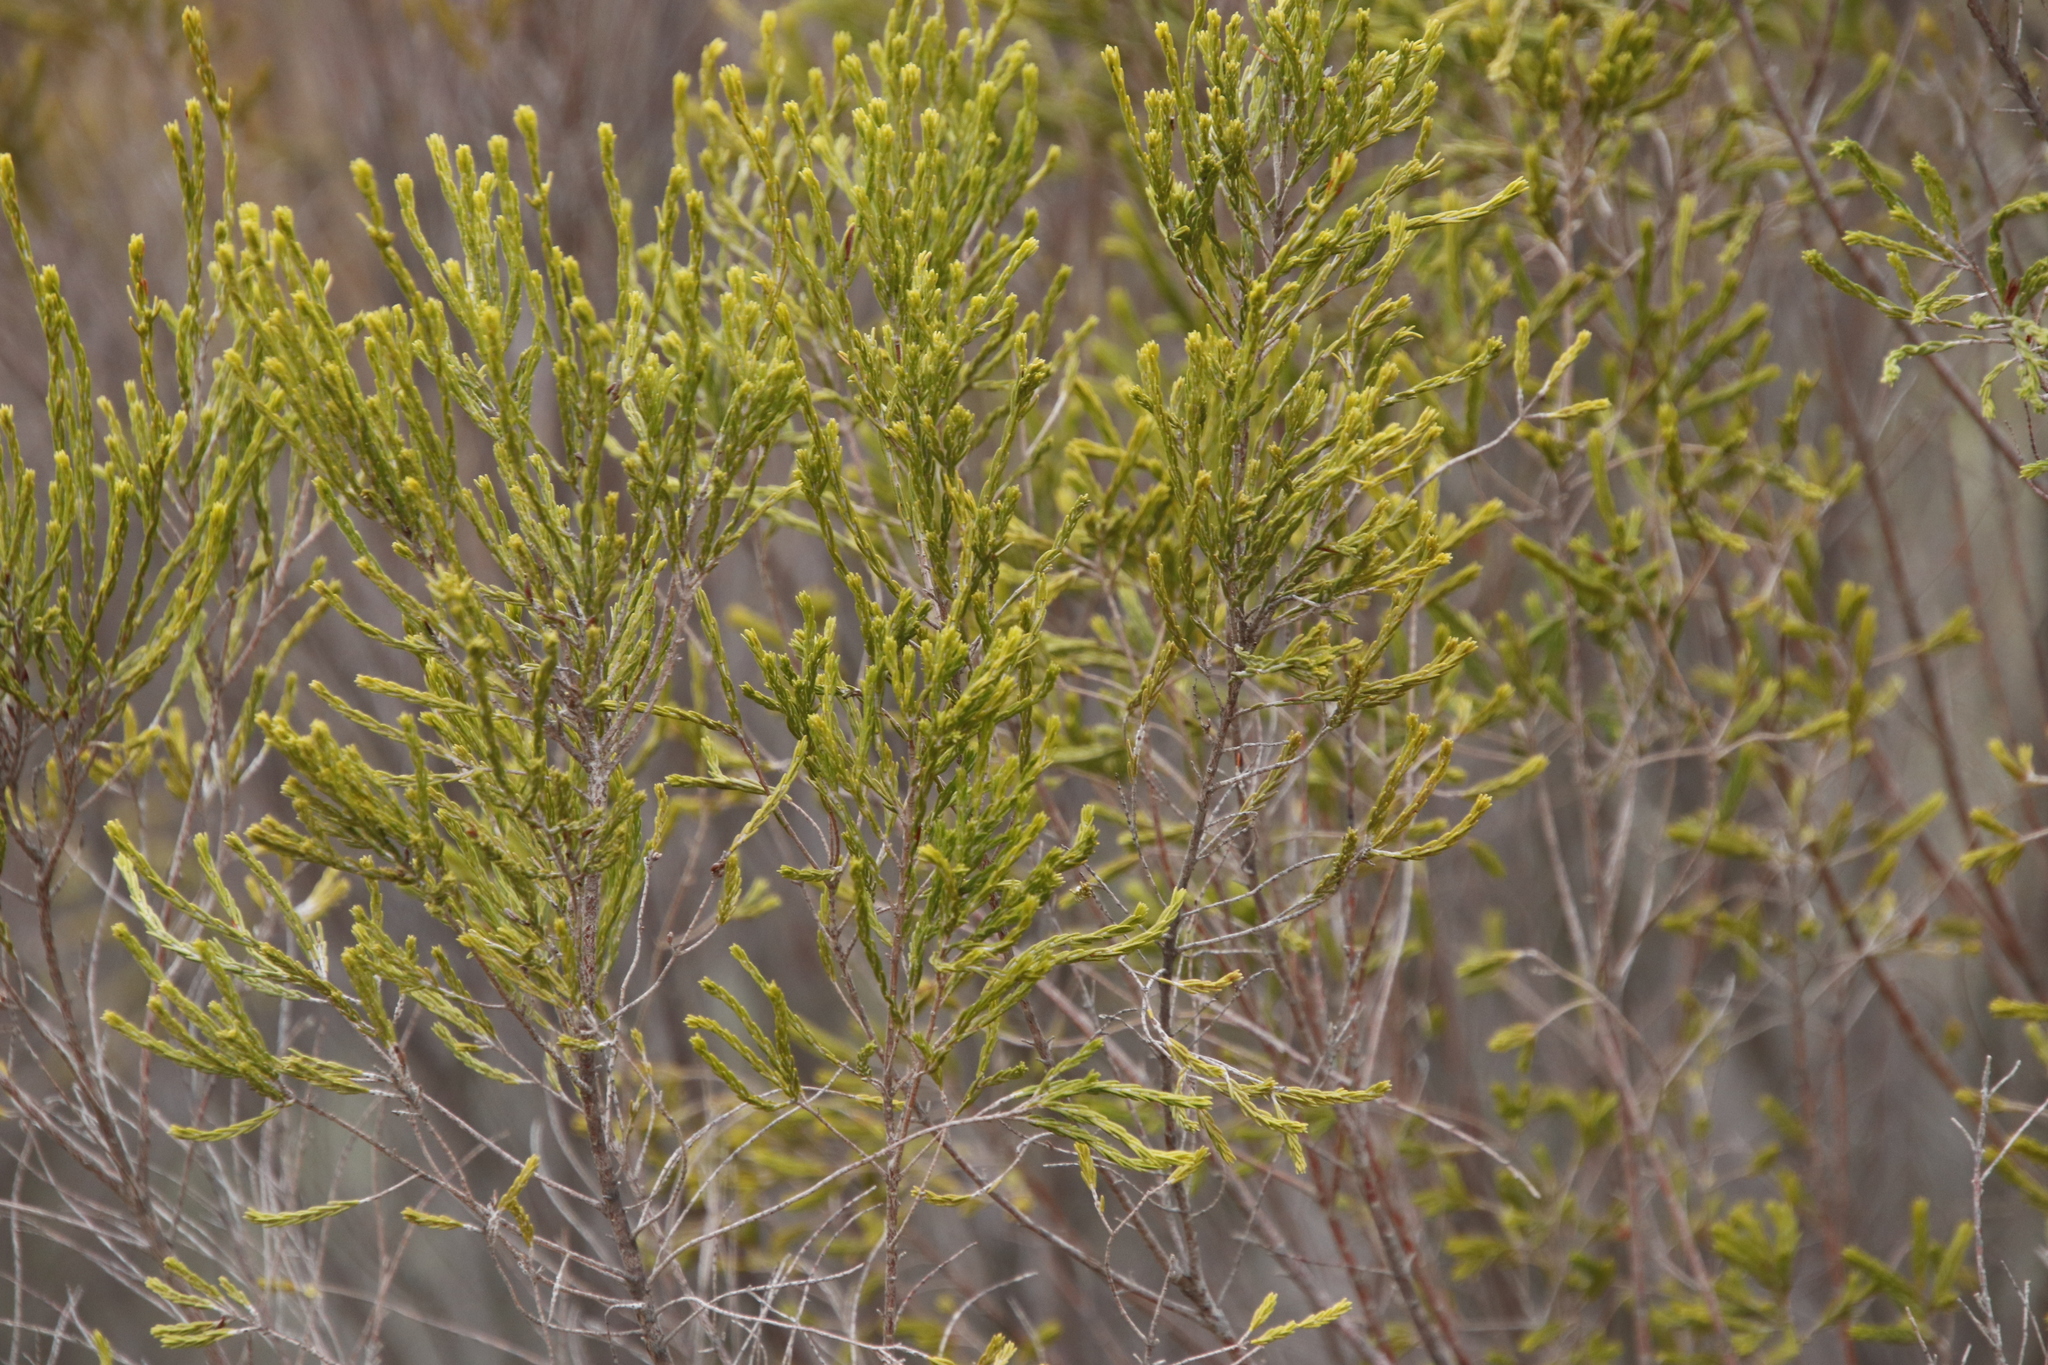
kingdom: Plantae
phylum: Tracheophyta
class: Magnoliopsida
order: Malvales
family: Thymelaeaceae
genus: Passerina
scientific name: Passerina corymbosa
